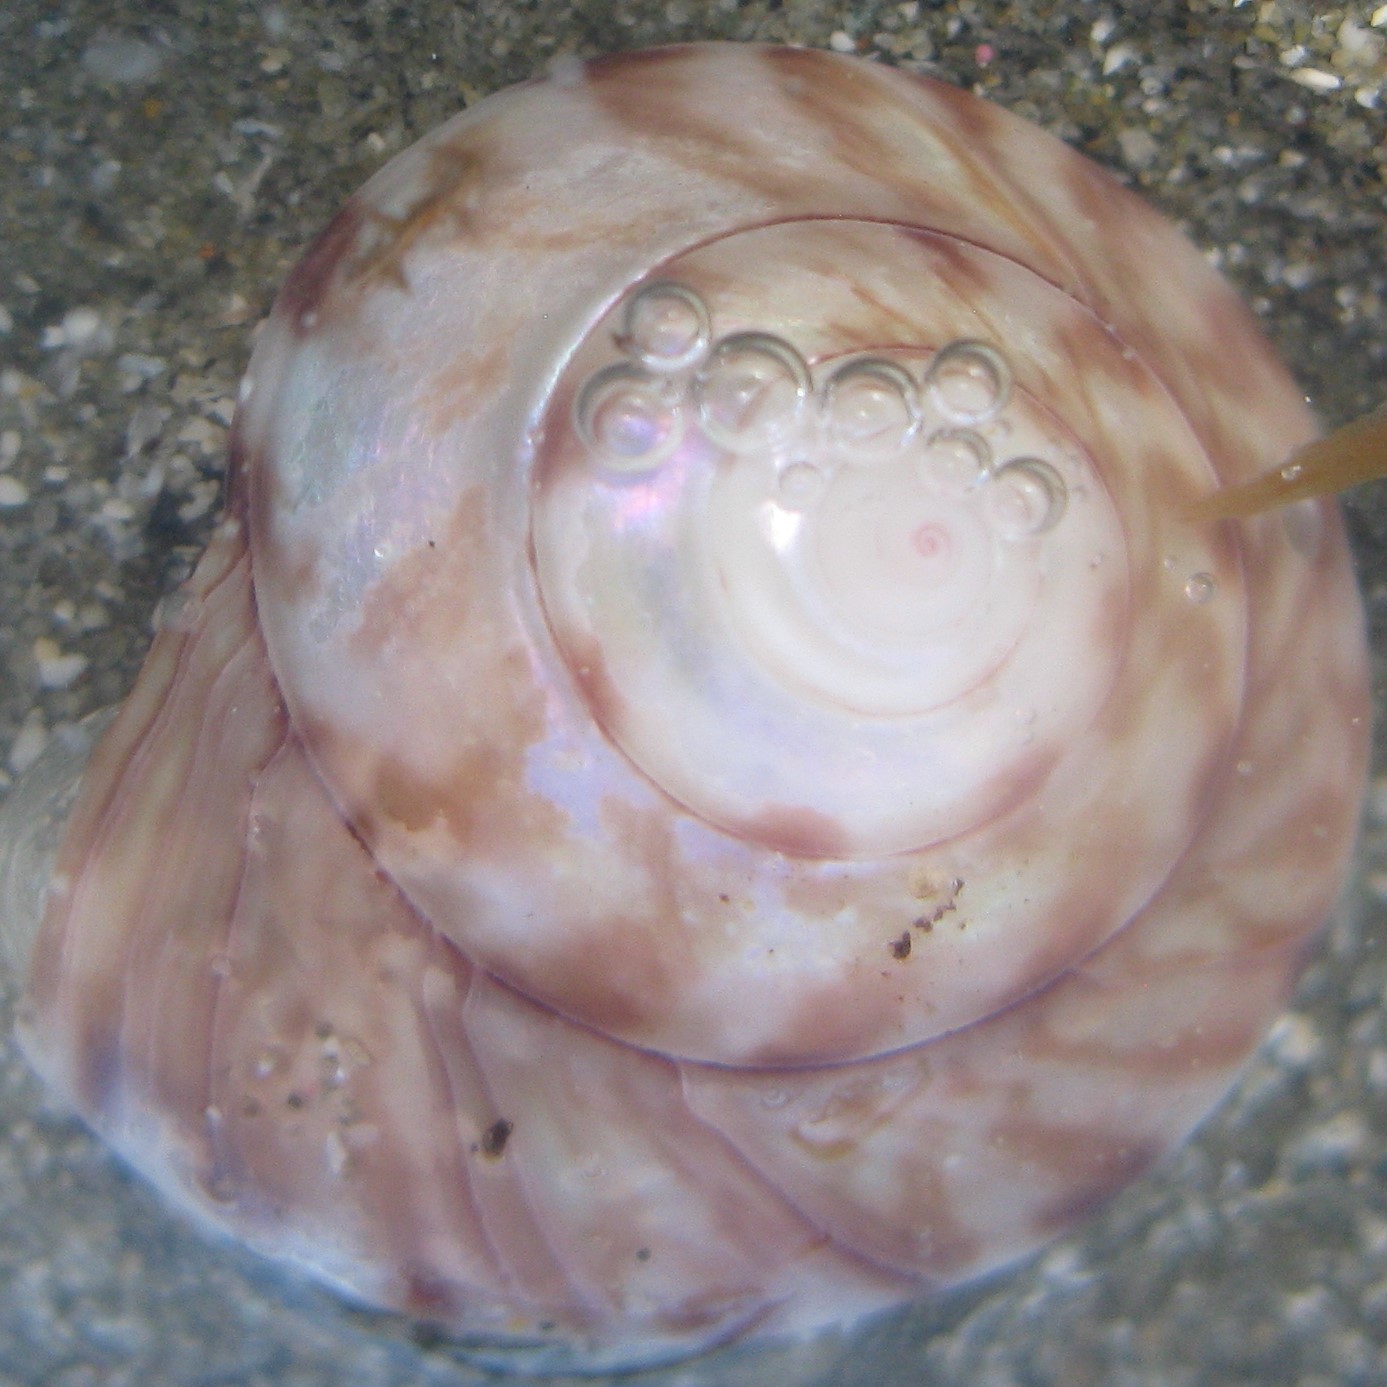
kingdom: Animalia
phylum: Mollusca
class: Gastropoda
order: Trochida
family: Trochidae
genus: Zethalia
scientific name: Zethalia zelandica
